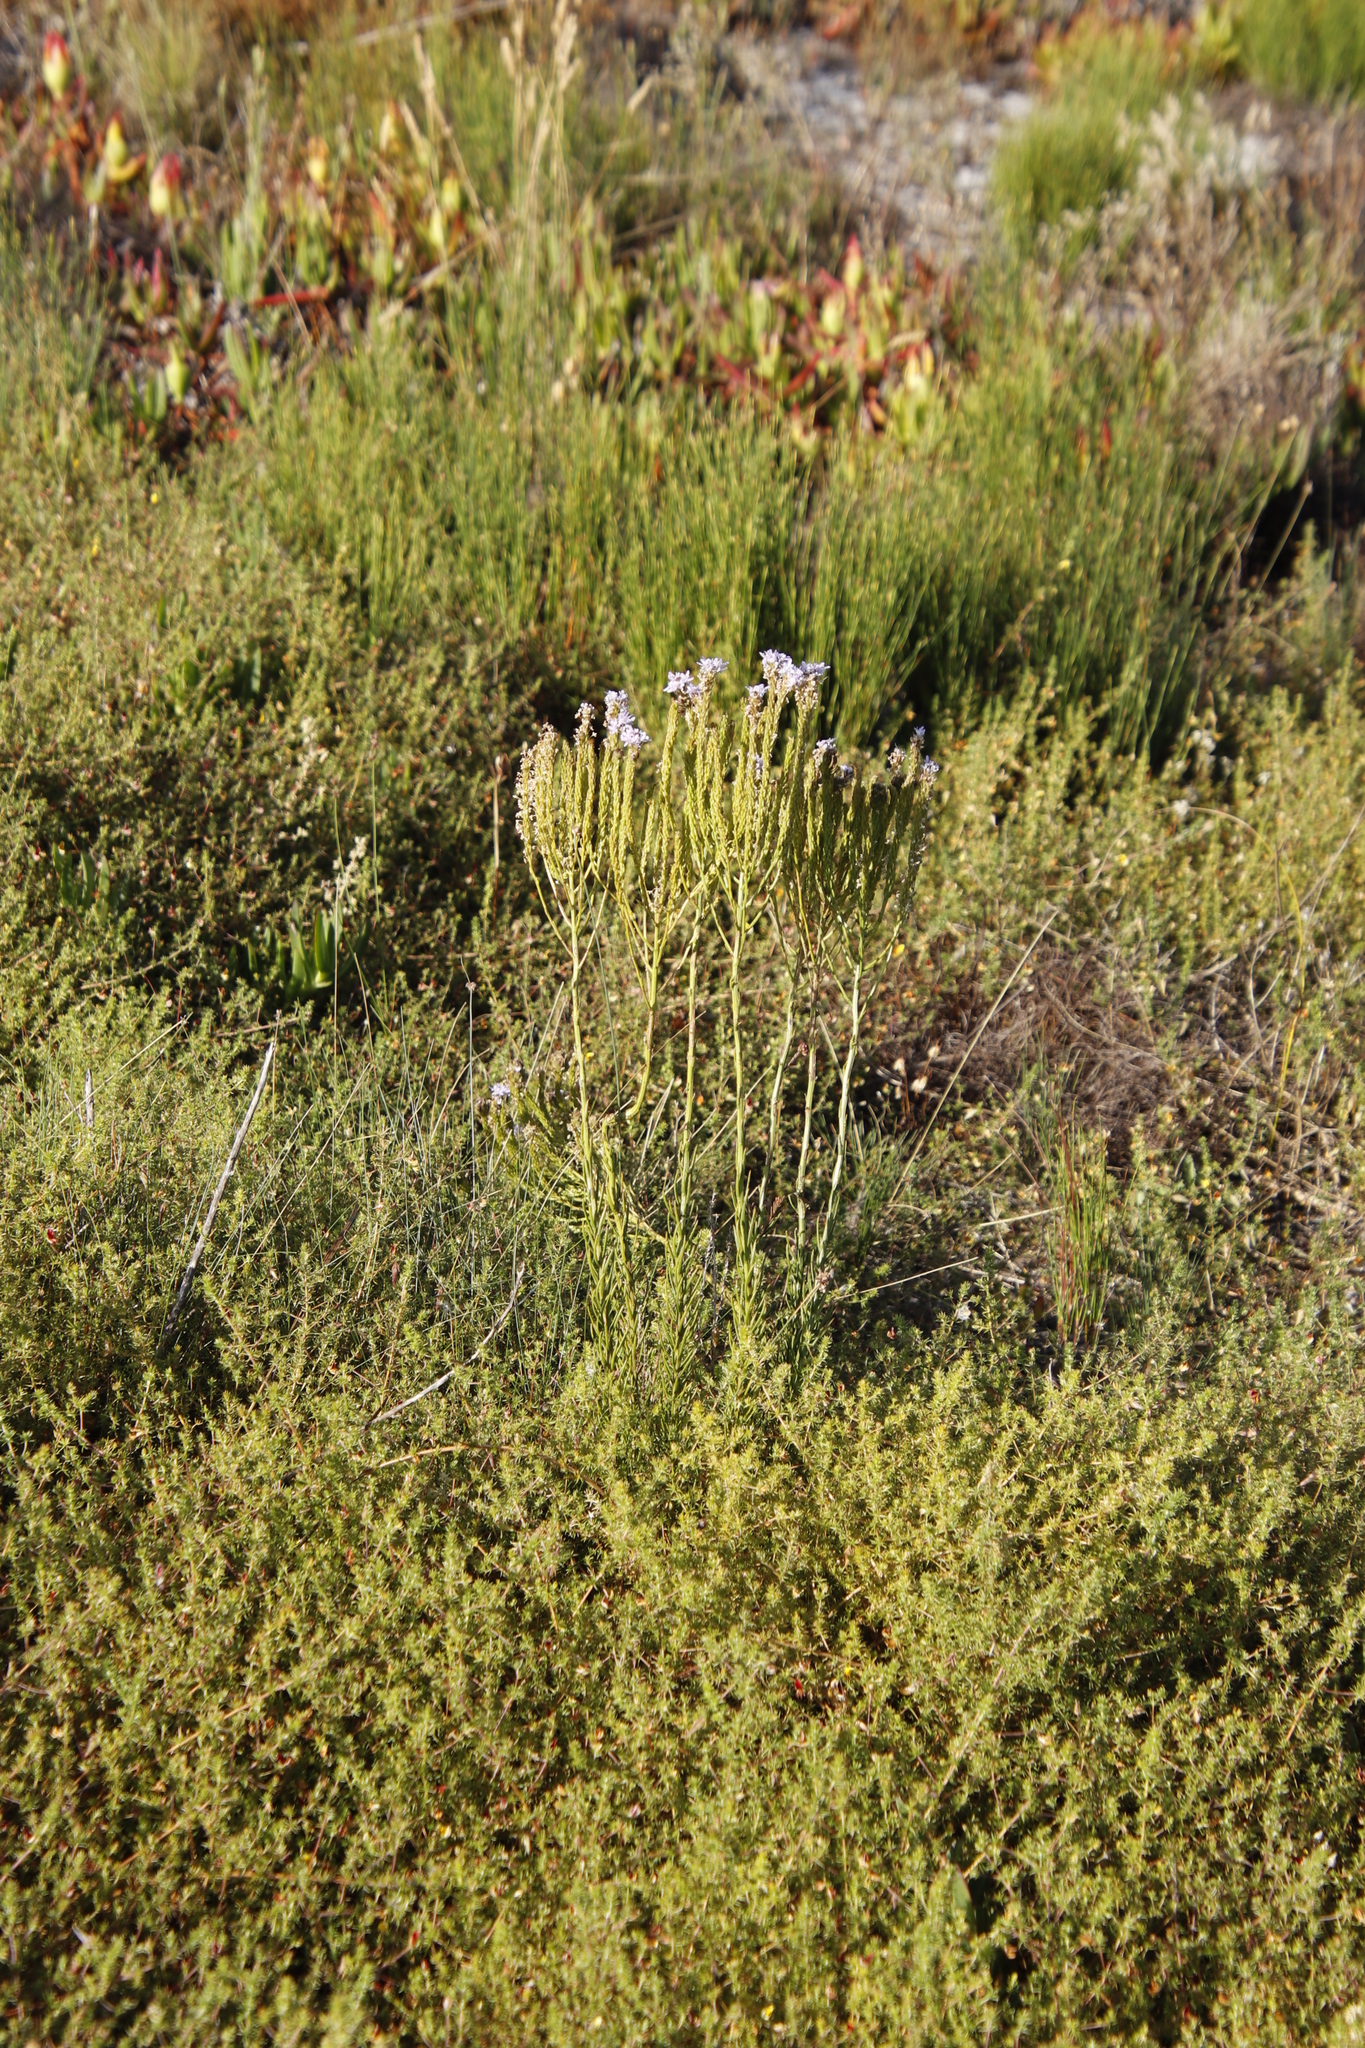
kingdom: Plantae
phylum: Tracheophyta
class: Magnoliopsida
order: Lamiales
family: Scrophulariaceae
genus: Pseudoselago
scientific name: Pseudoselago spuria
